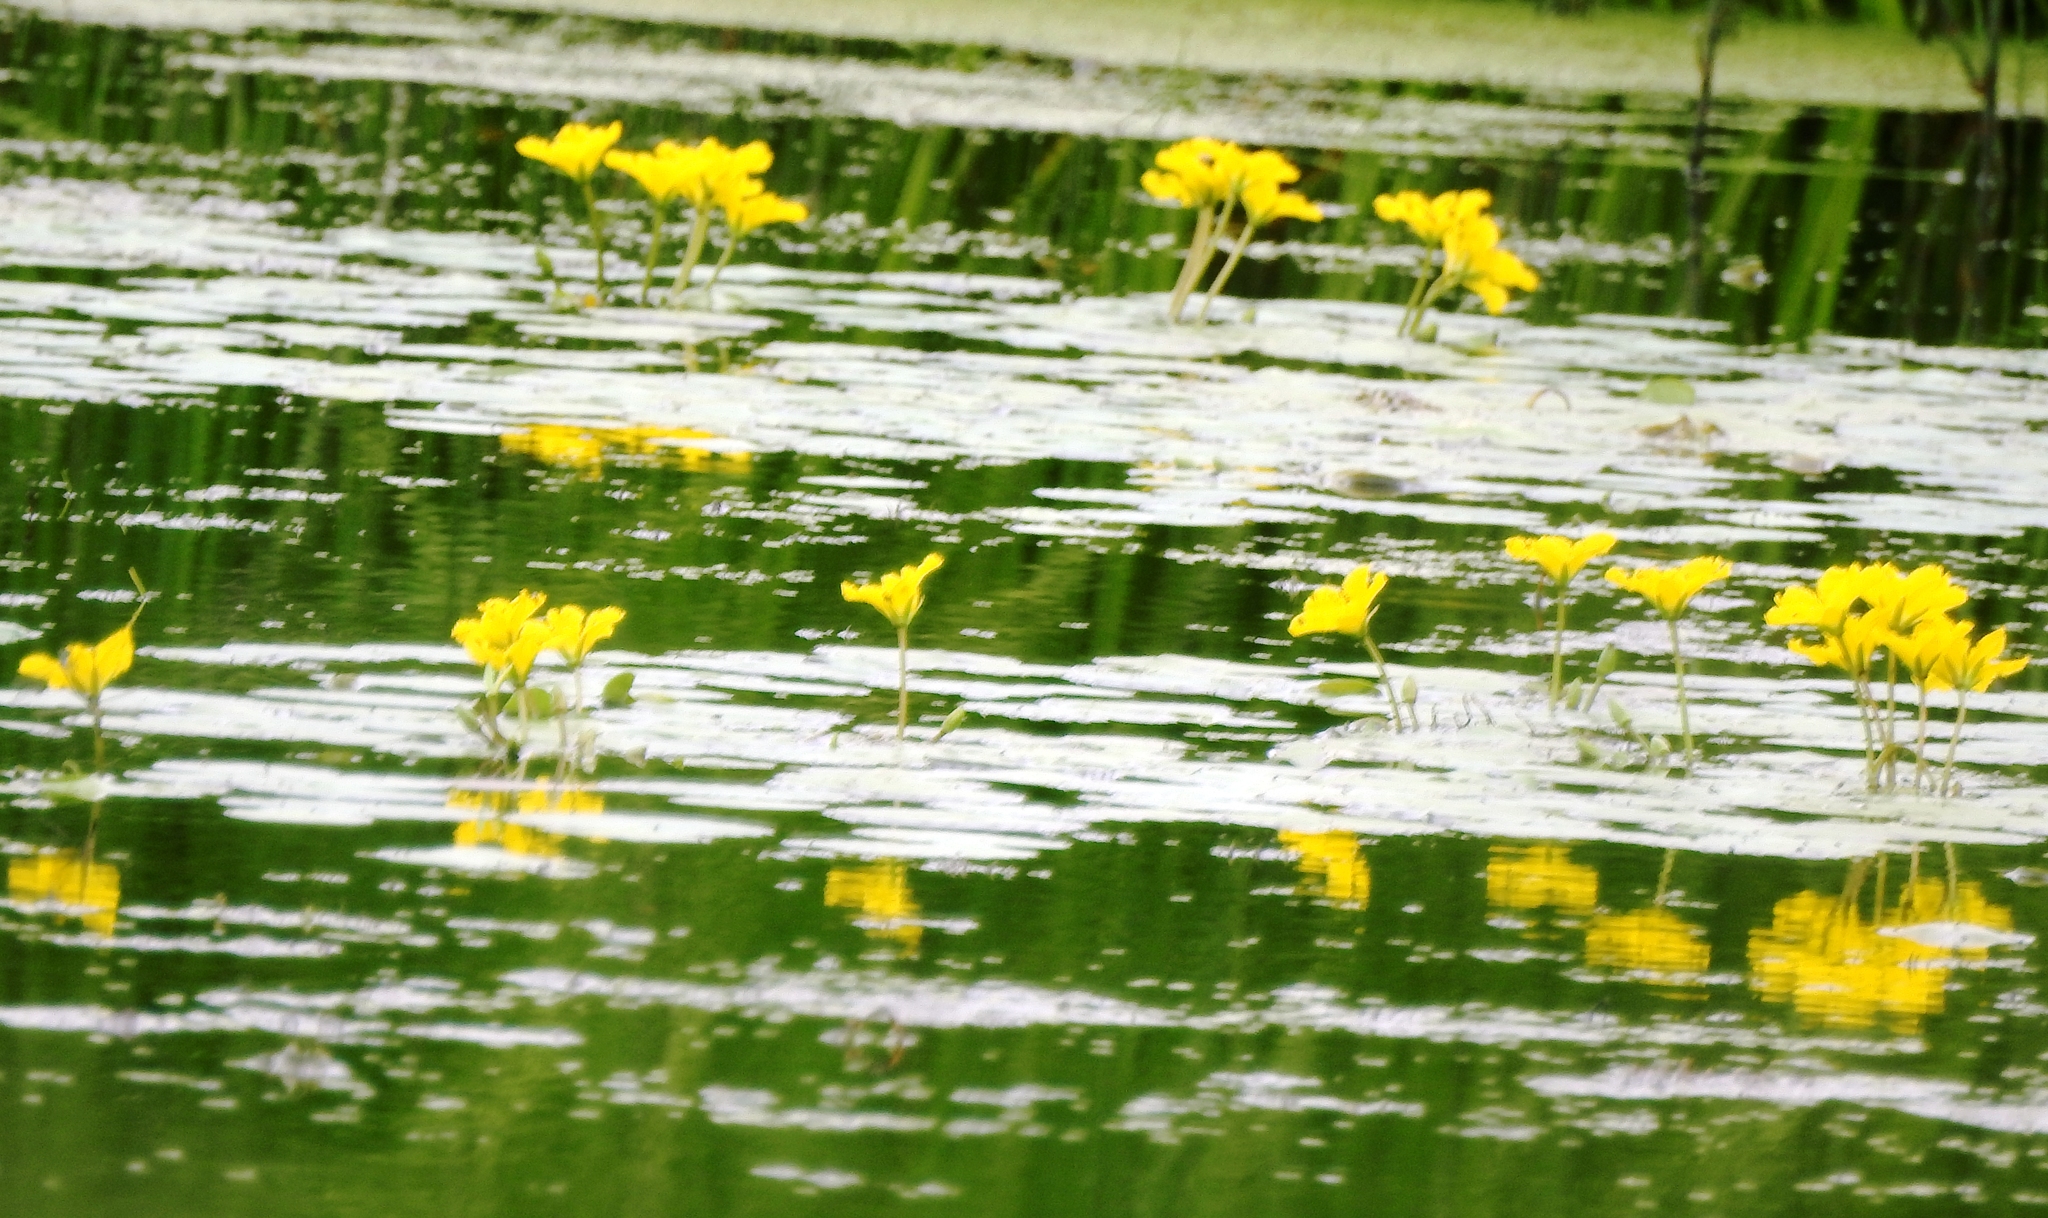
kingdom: Plantae
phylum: Tracheophyta
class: Magnoliopsida
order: Asterales
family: Menyanthaceae
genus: Nymphoides
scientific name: Nymphoides peltata
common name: Fringed water-lily
